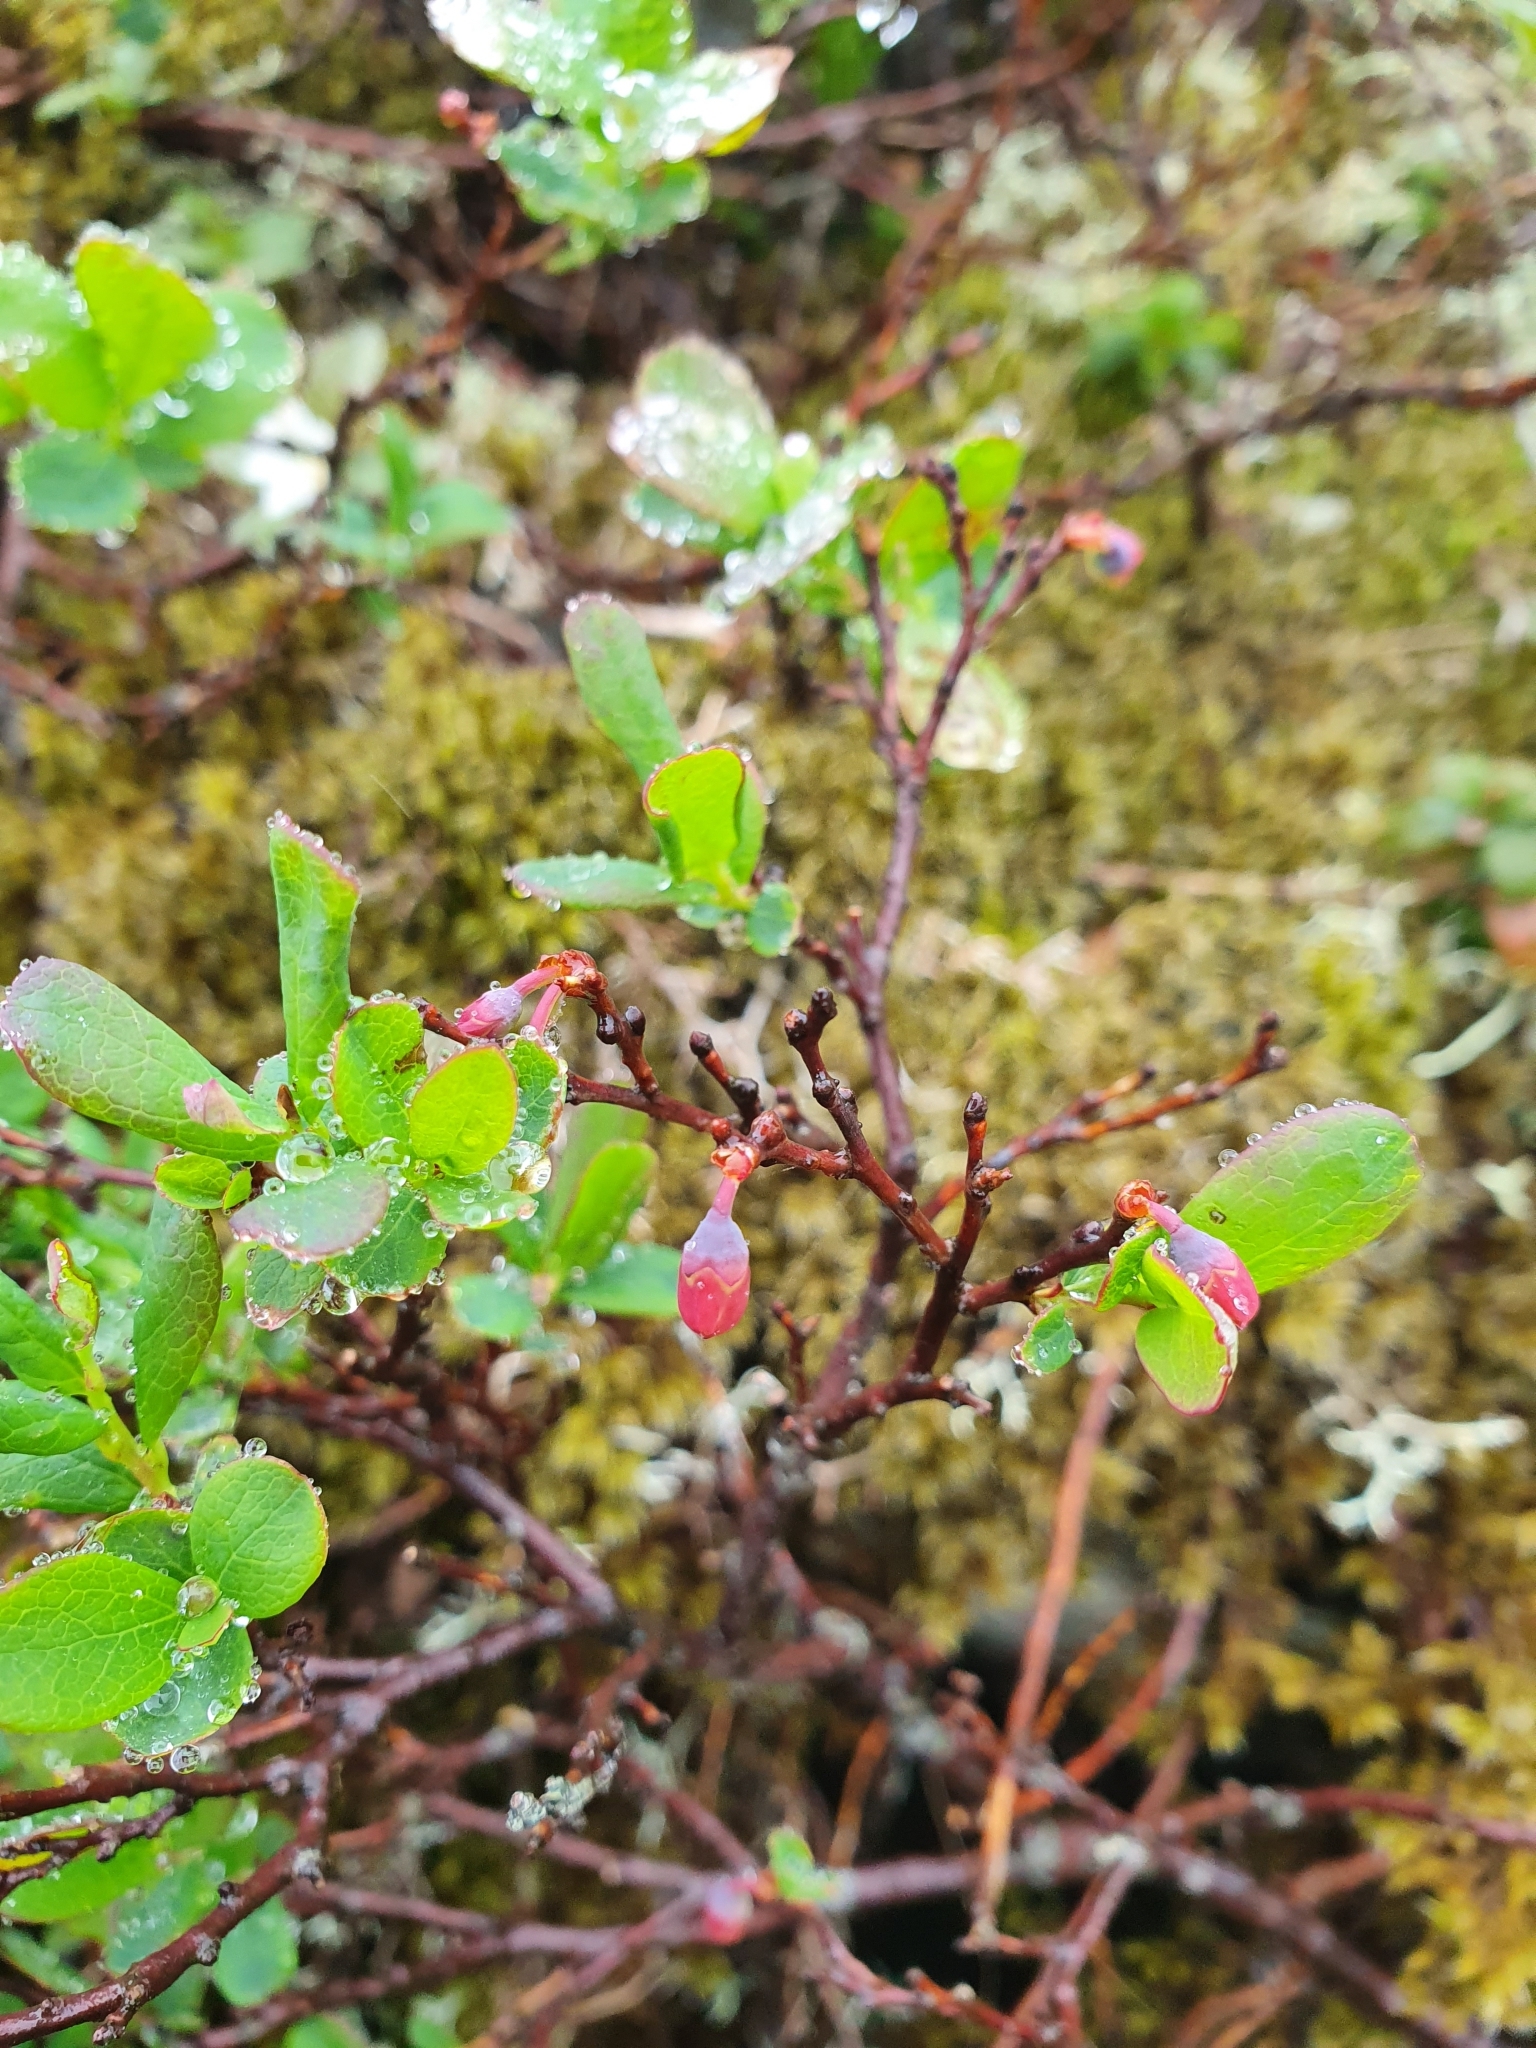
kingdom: Plantae
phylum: Tracheophyta
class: Magnoliopsida
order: Ericales
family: Ericaceae
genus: Vaccinium
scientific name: Vaccinium uliginosum
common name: Bog bilberry
